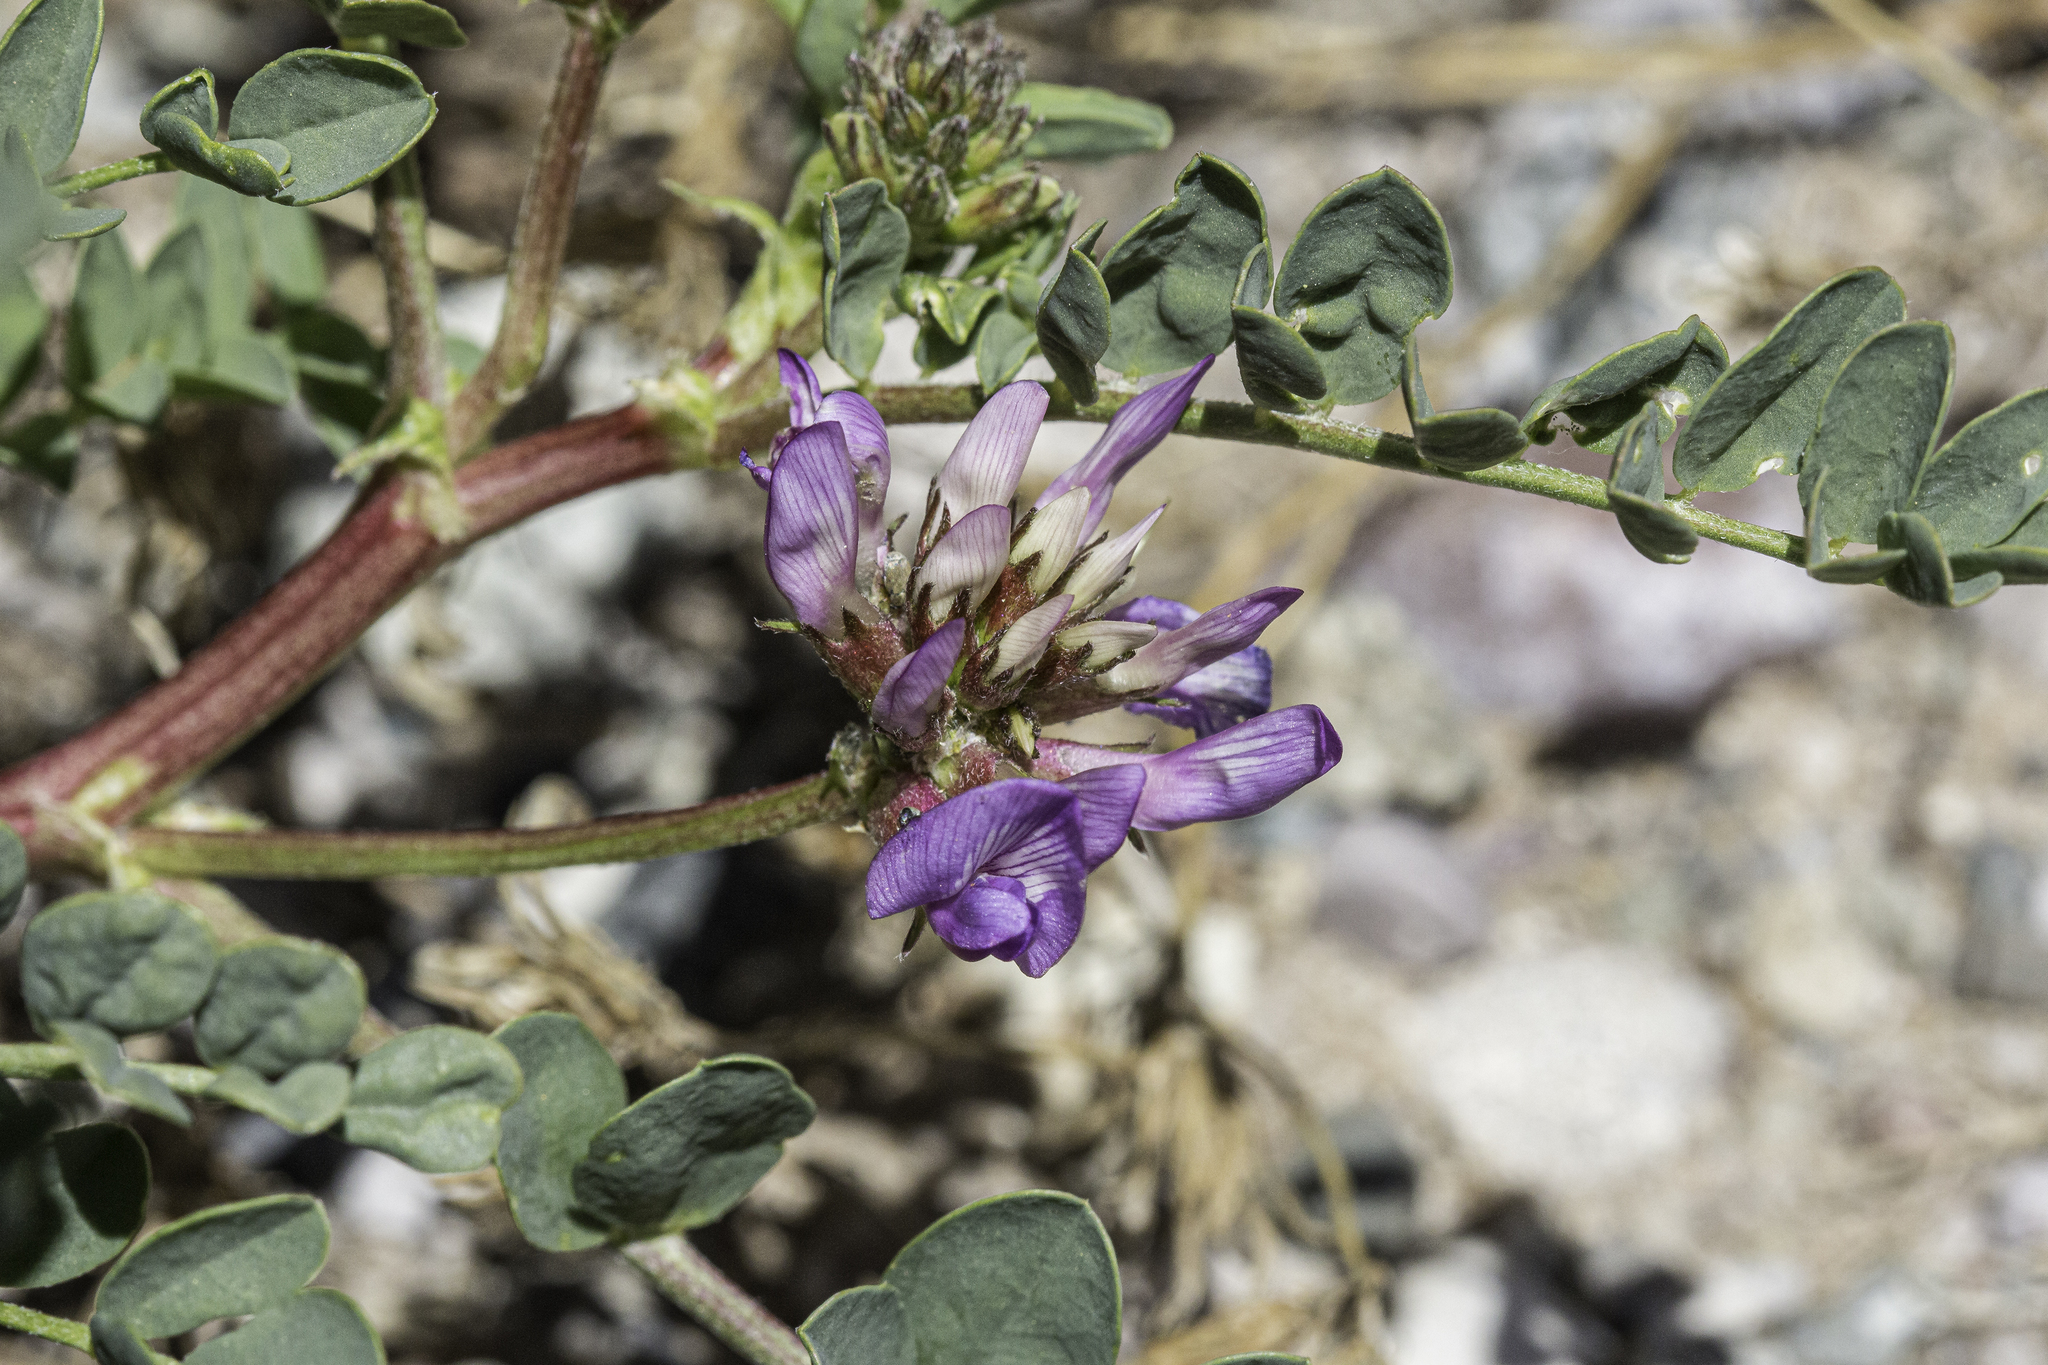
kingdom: Plantae
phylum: Tracheophyta
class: Magnoliopsida
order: Fabales
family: Fabaceae
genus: Astragalus
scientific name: Astragalus lentiginosus
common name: Freckled milkvetch
